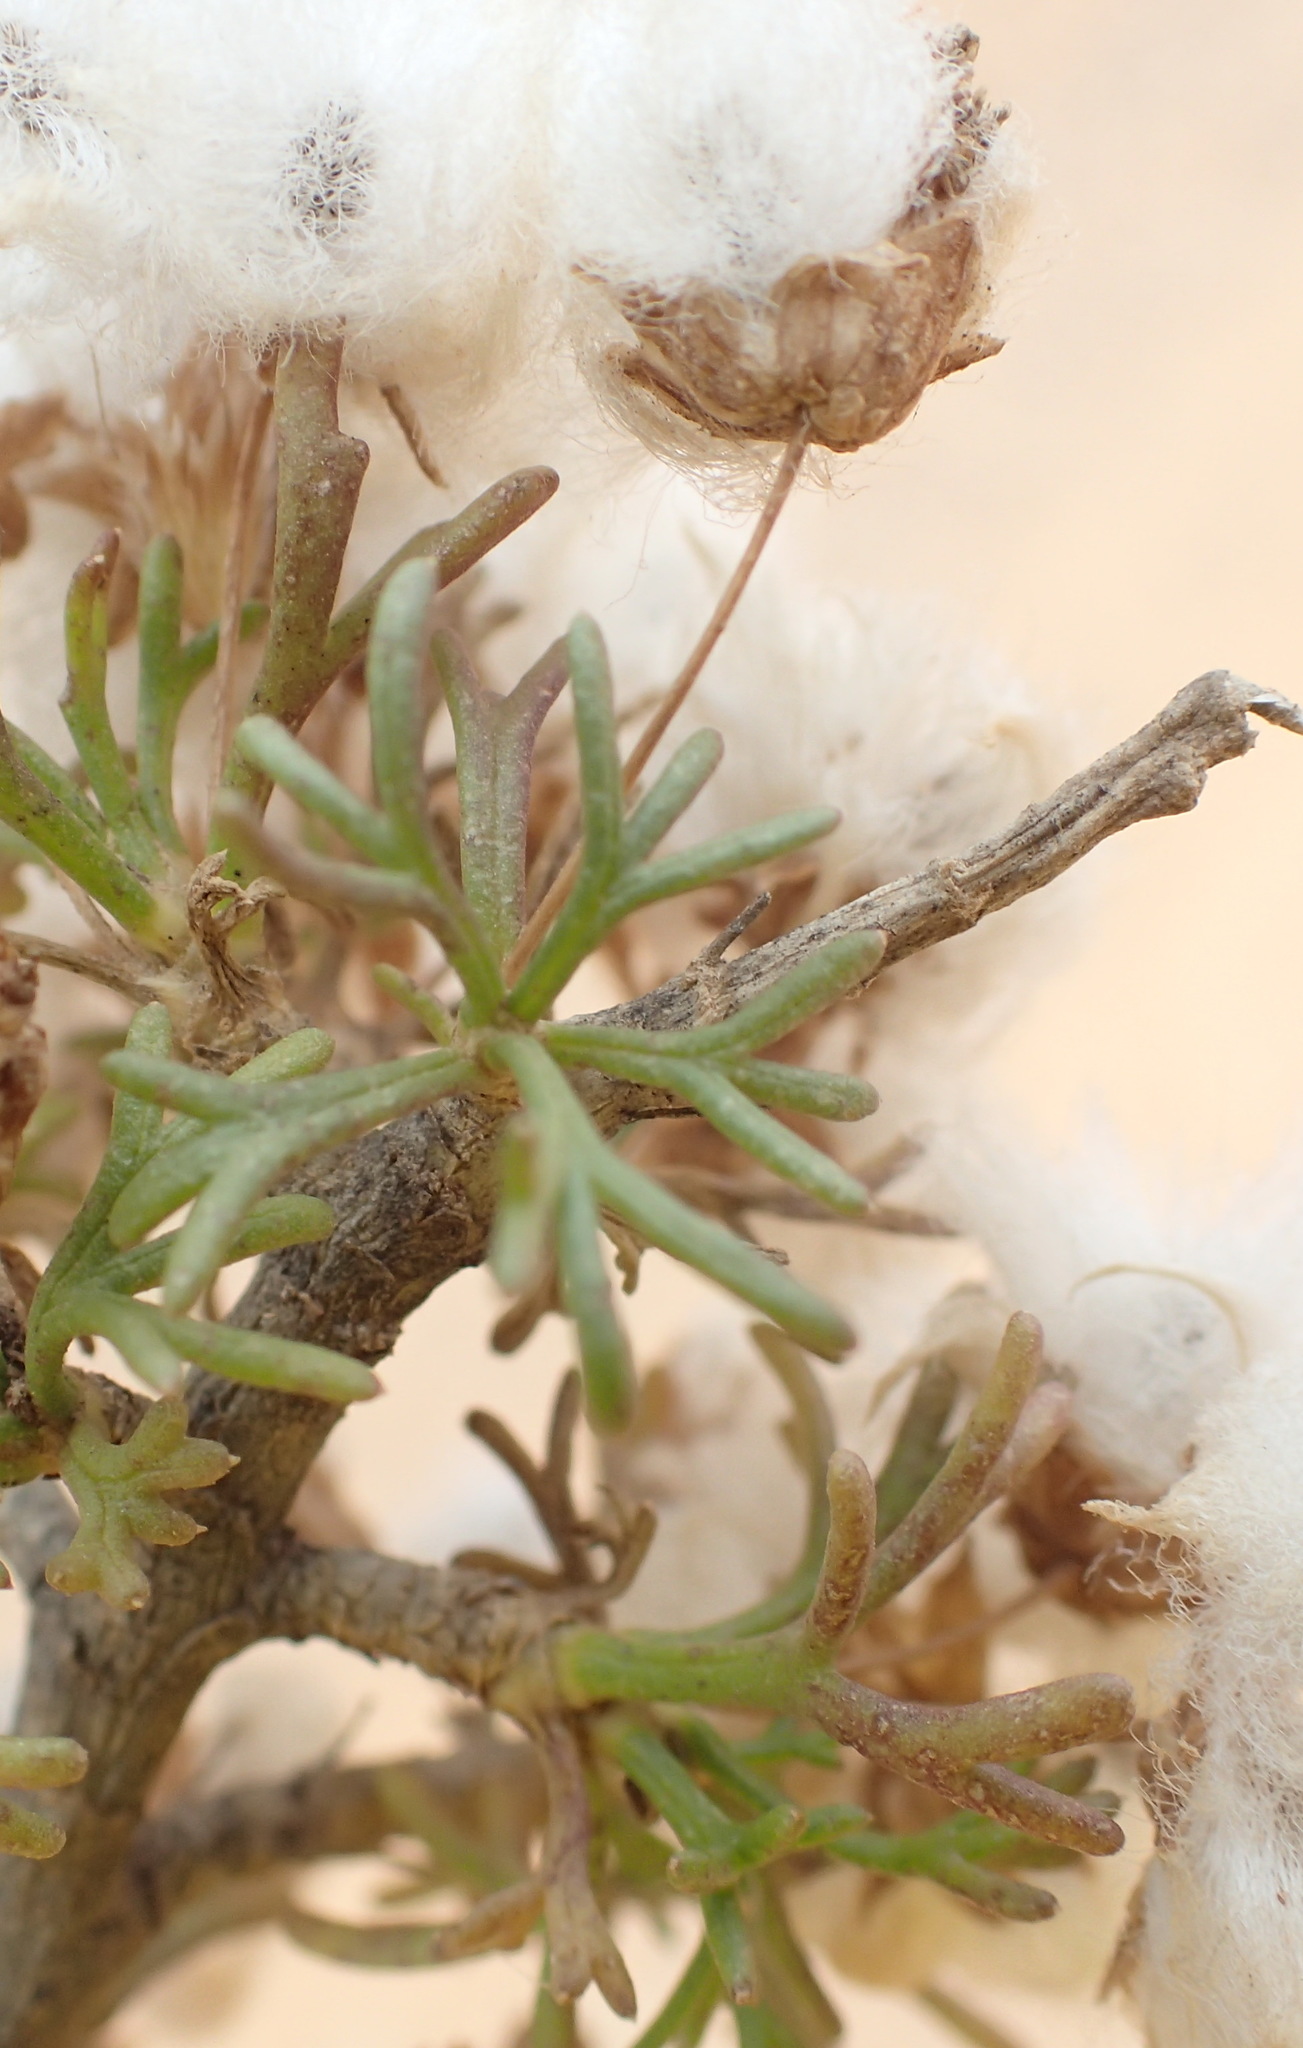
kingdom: Plantae
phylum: Tracheophyta
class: Magnoliopsida
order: Asterales
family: Asteraceae
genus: Euryops
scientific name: Euryops multifidus
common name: Hawk's eye
